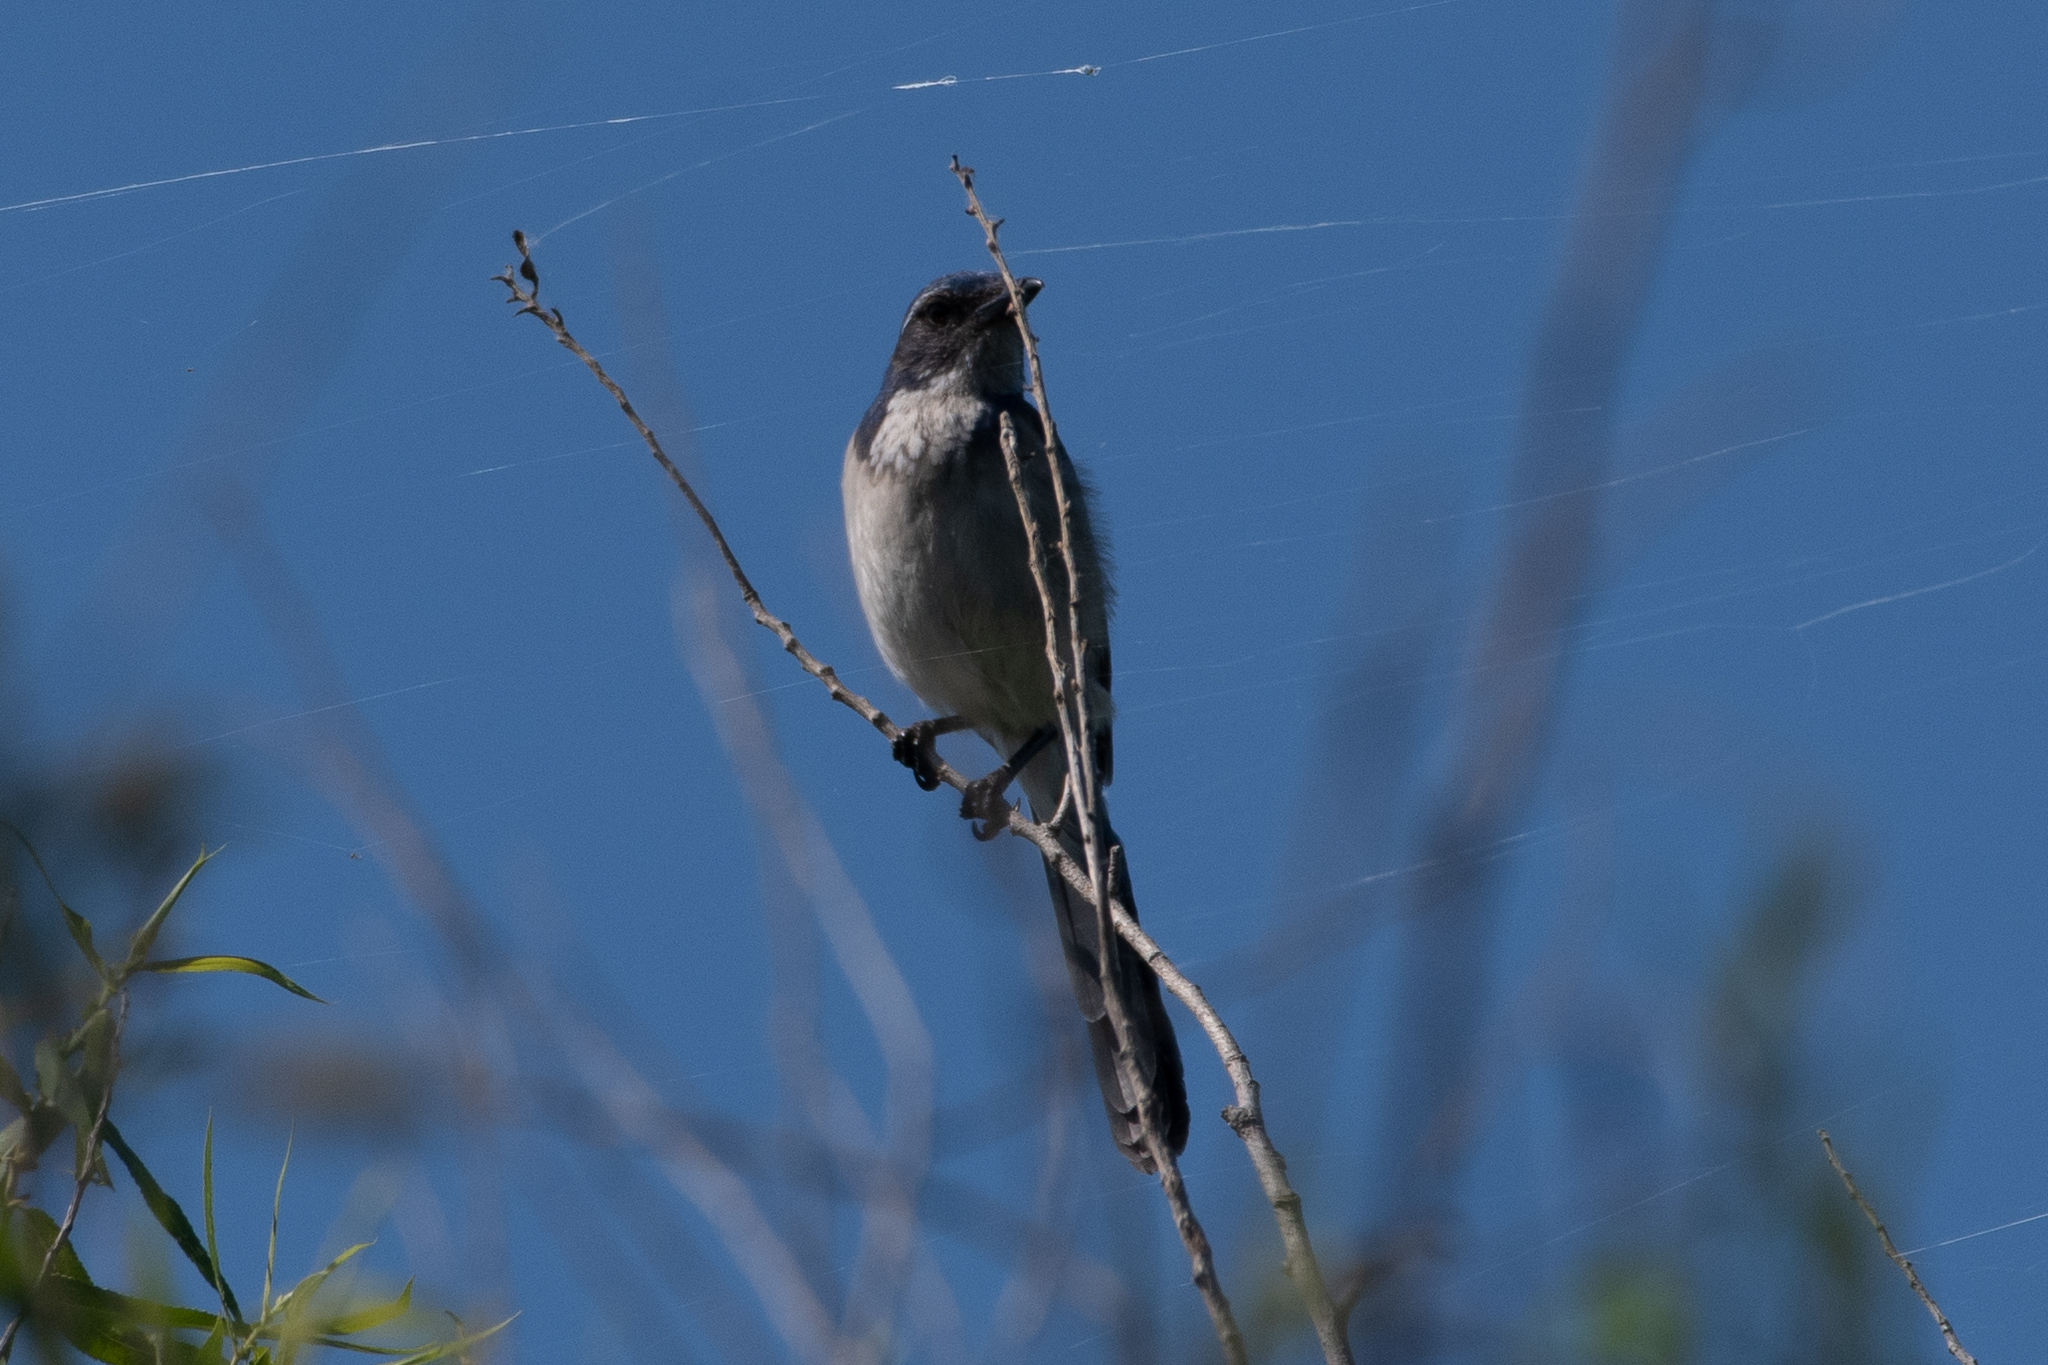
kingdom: Animalia
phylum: Chordata
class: Aves
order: Passeriformes
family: Corvidae
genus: Aphelocoma
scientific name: Aphelocoma californica
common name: California scrub-jay
